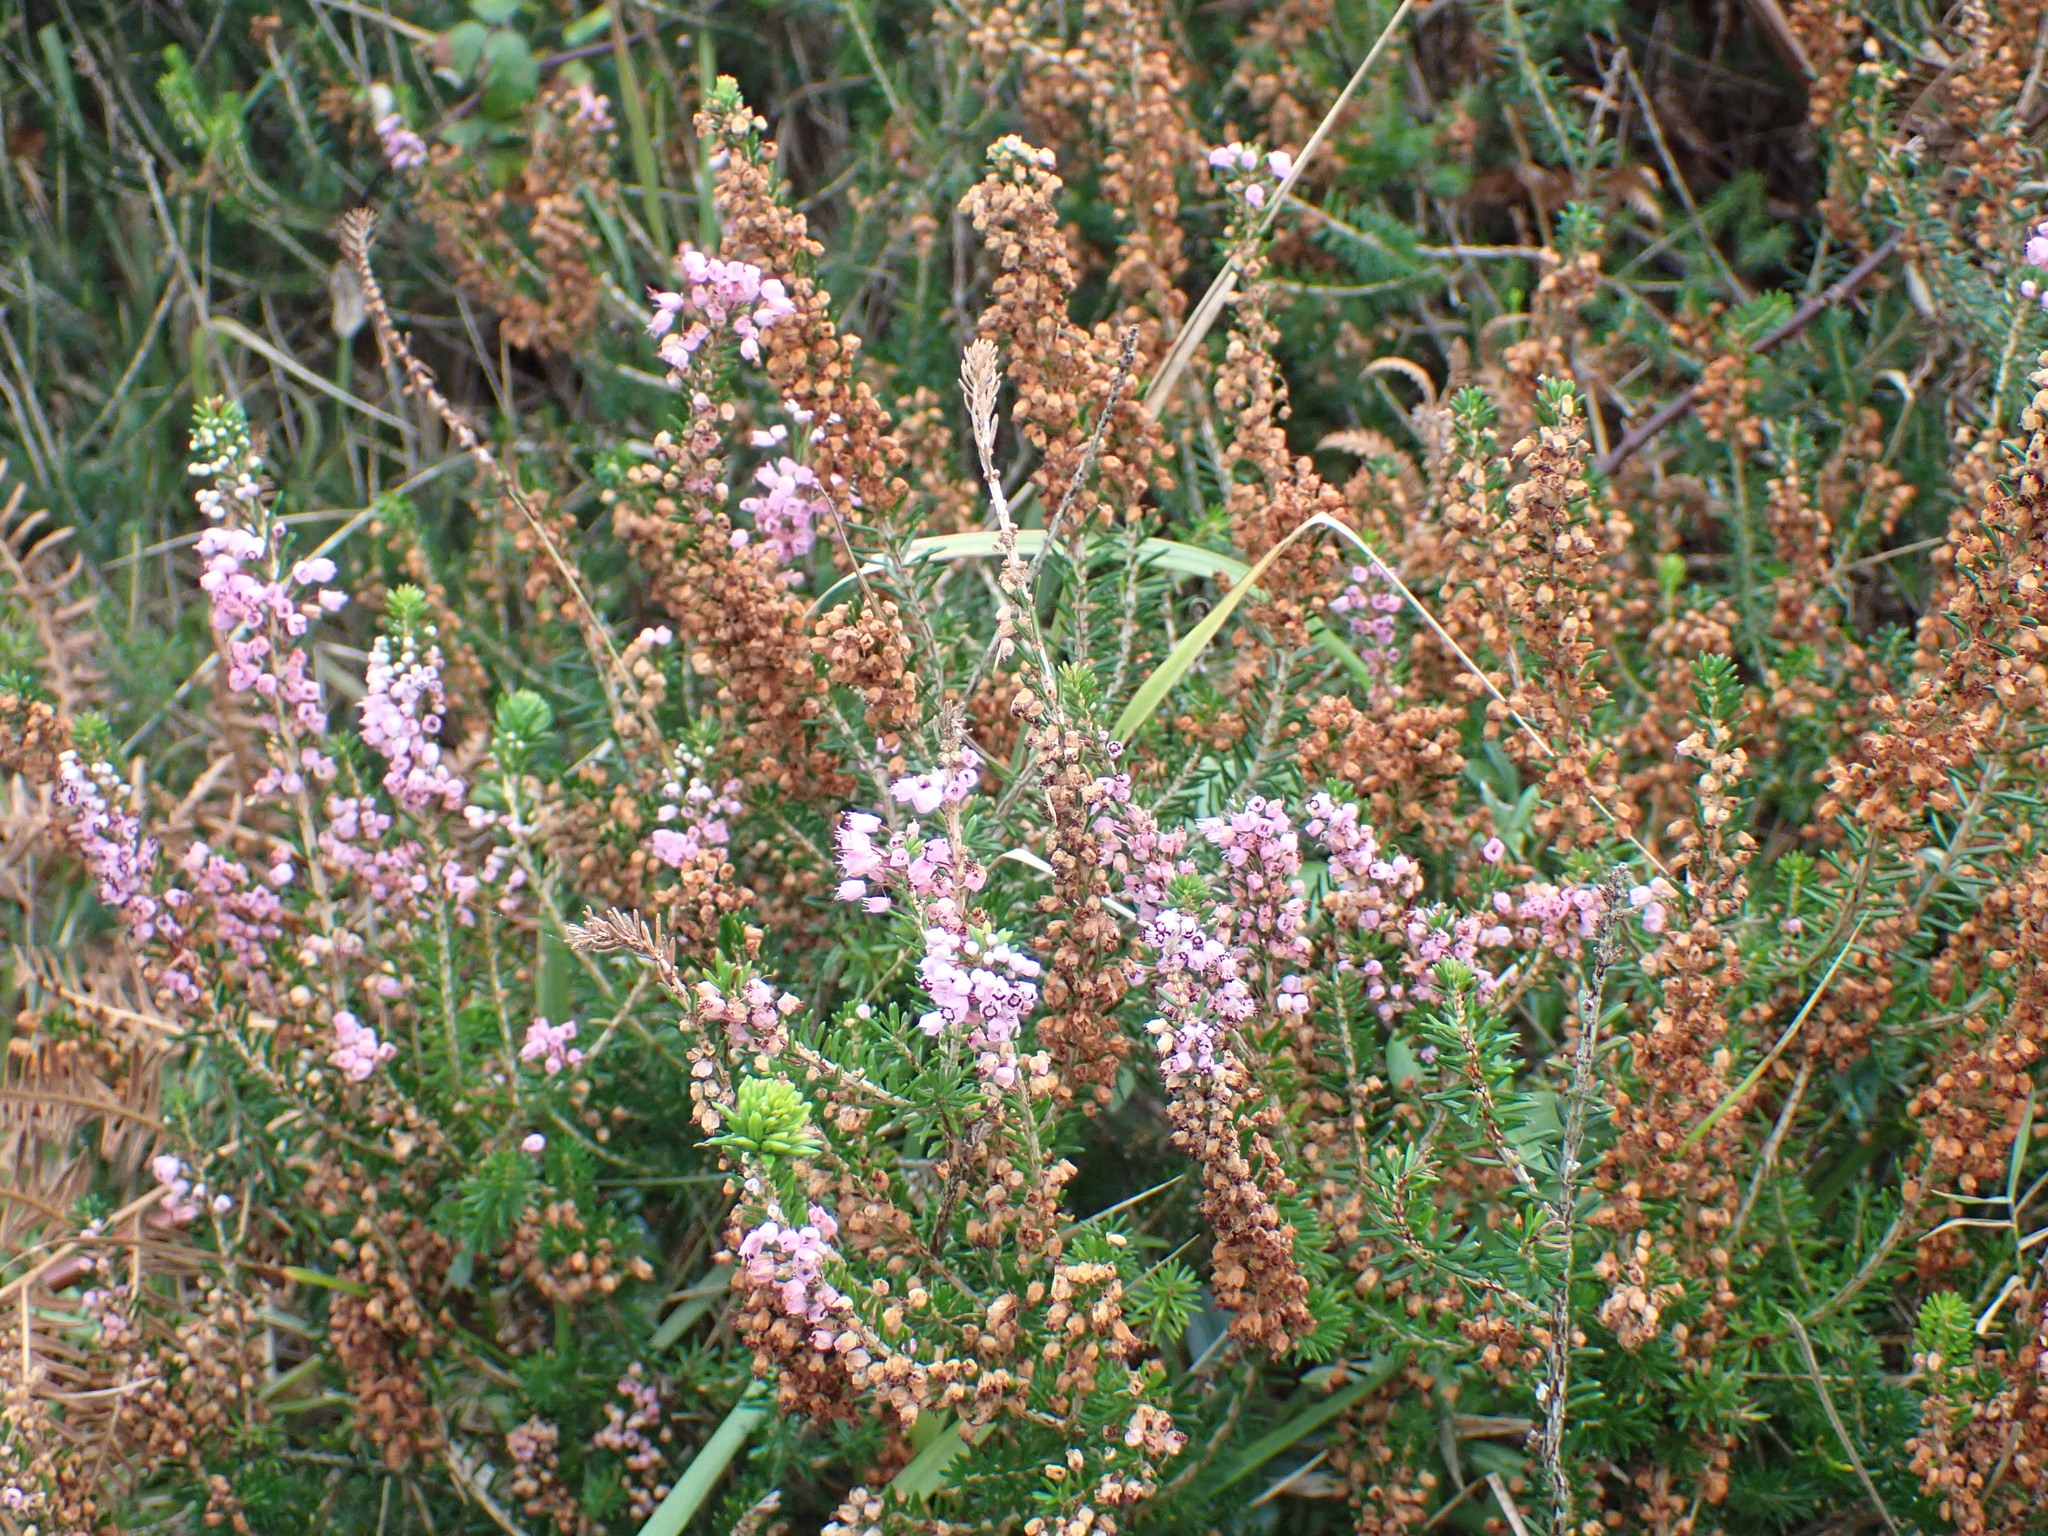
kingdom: Plantae
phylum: Tracheophyta
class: Magnoliopsida
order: Ericales
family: Ericaceae
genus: Erica
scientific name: Erica vagans
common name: Cornish heath
